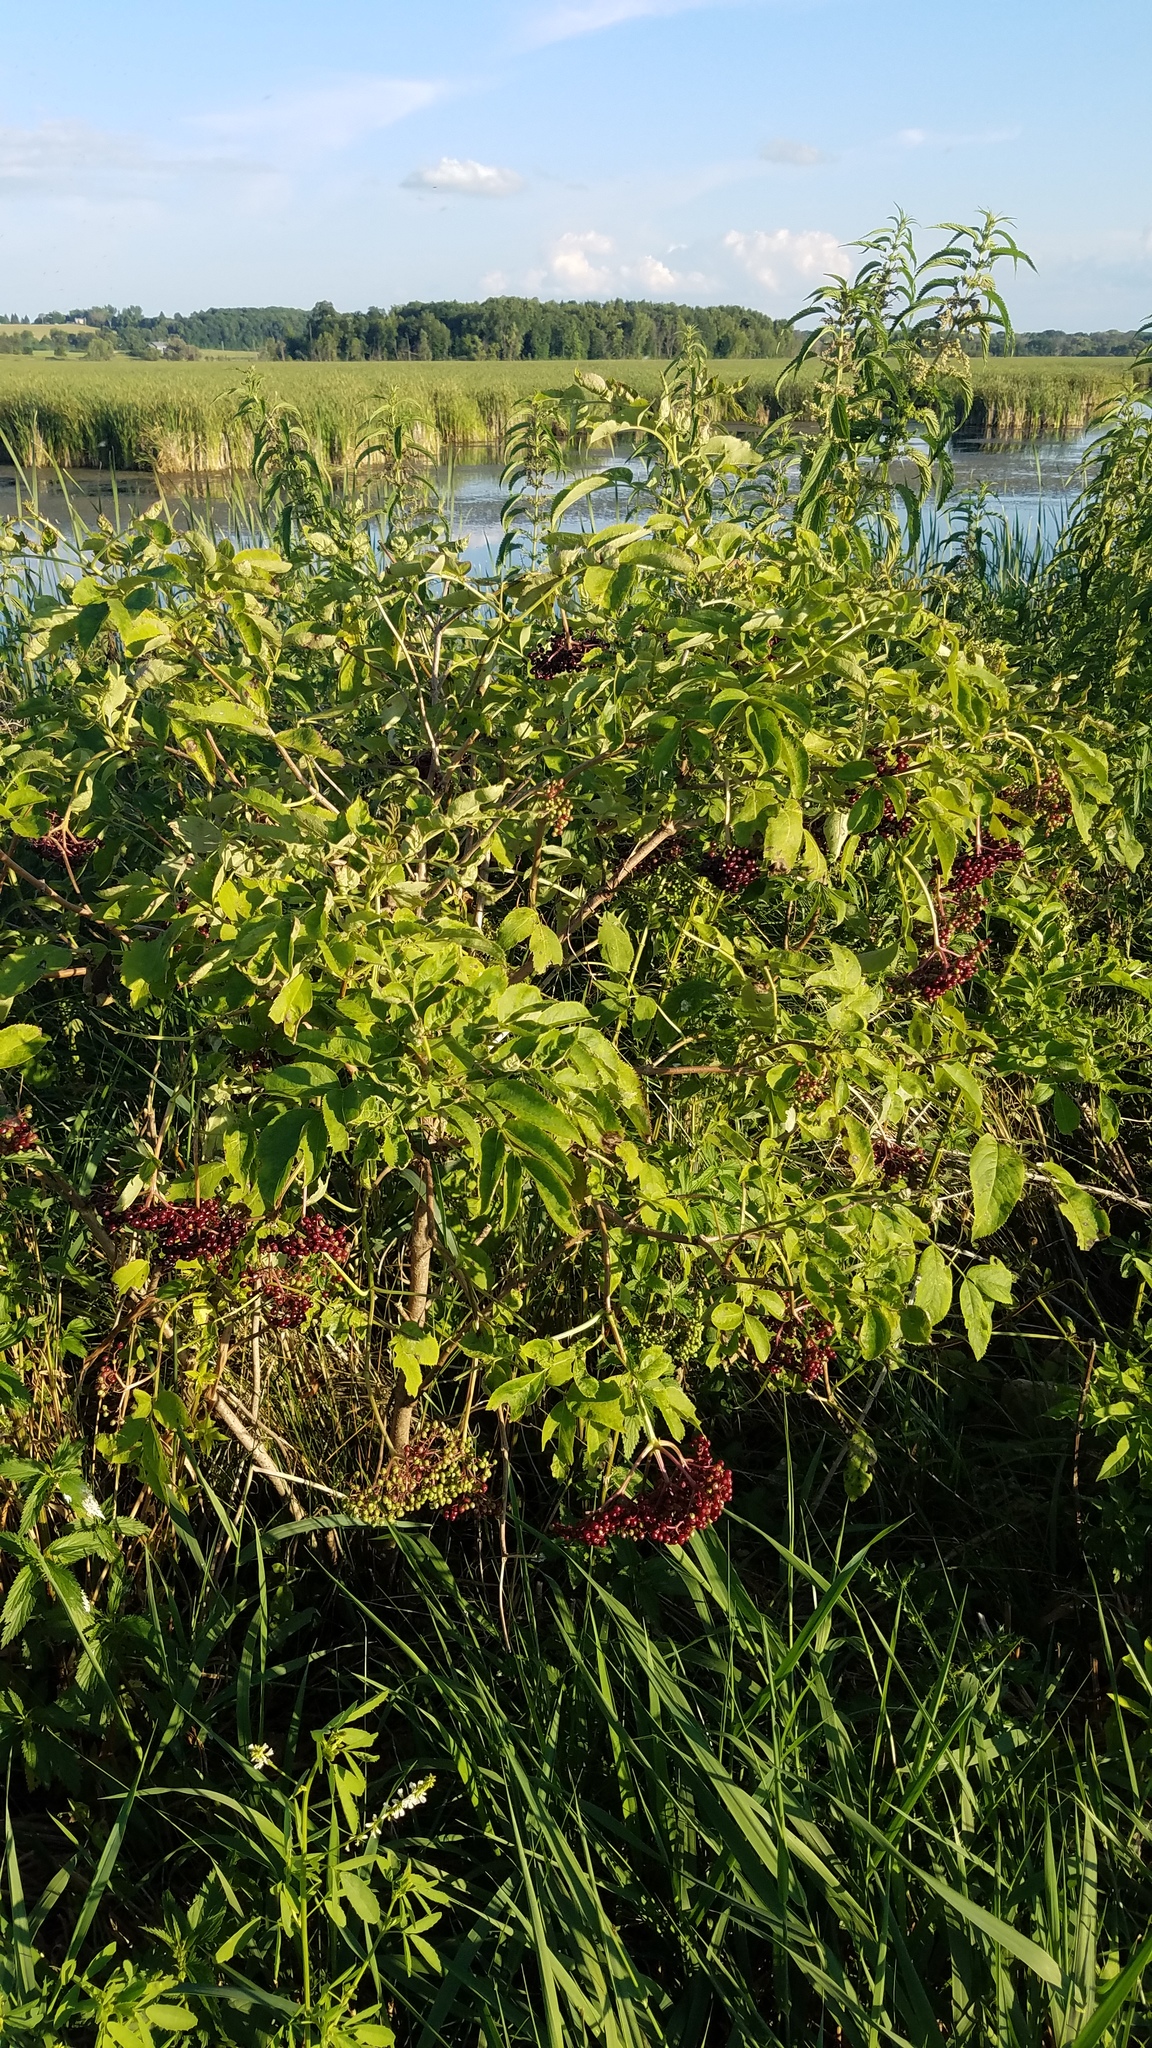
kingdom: Plantae
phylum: Tracheophyta
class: Magnoliopsida
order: Dipsacales
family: Viburnaceae
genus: Sambucus
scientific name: Sambucus canadensis
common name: American elder
